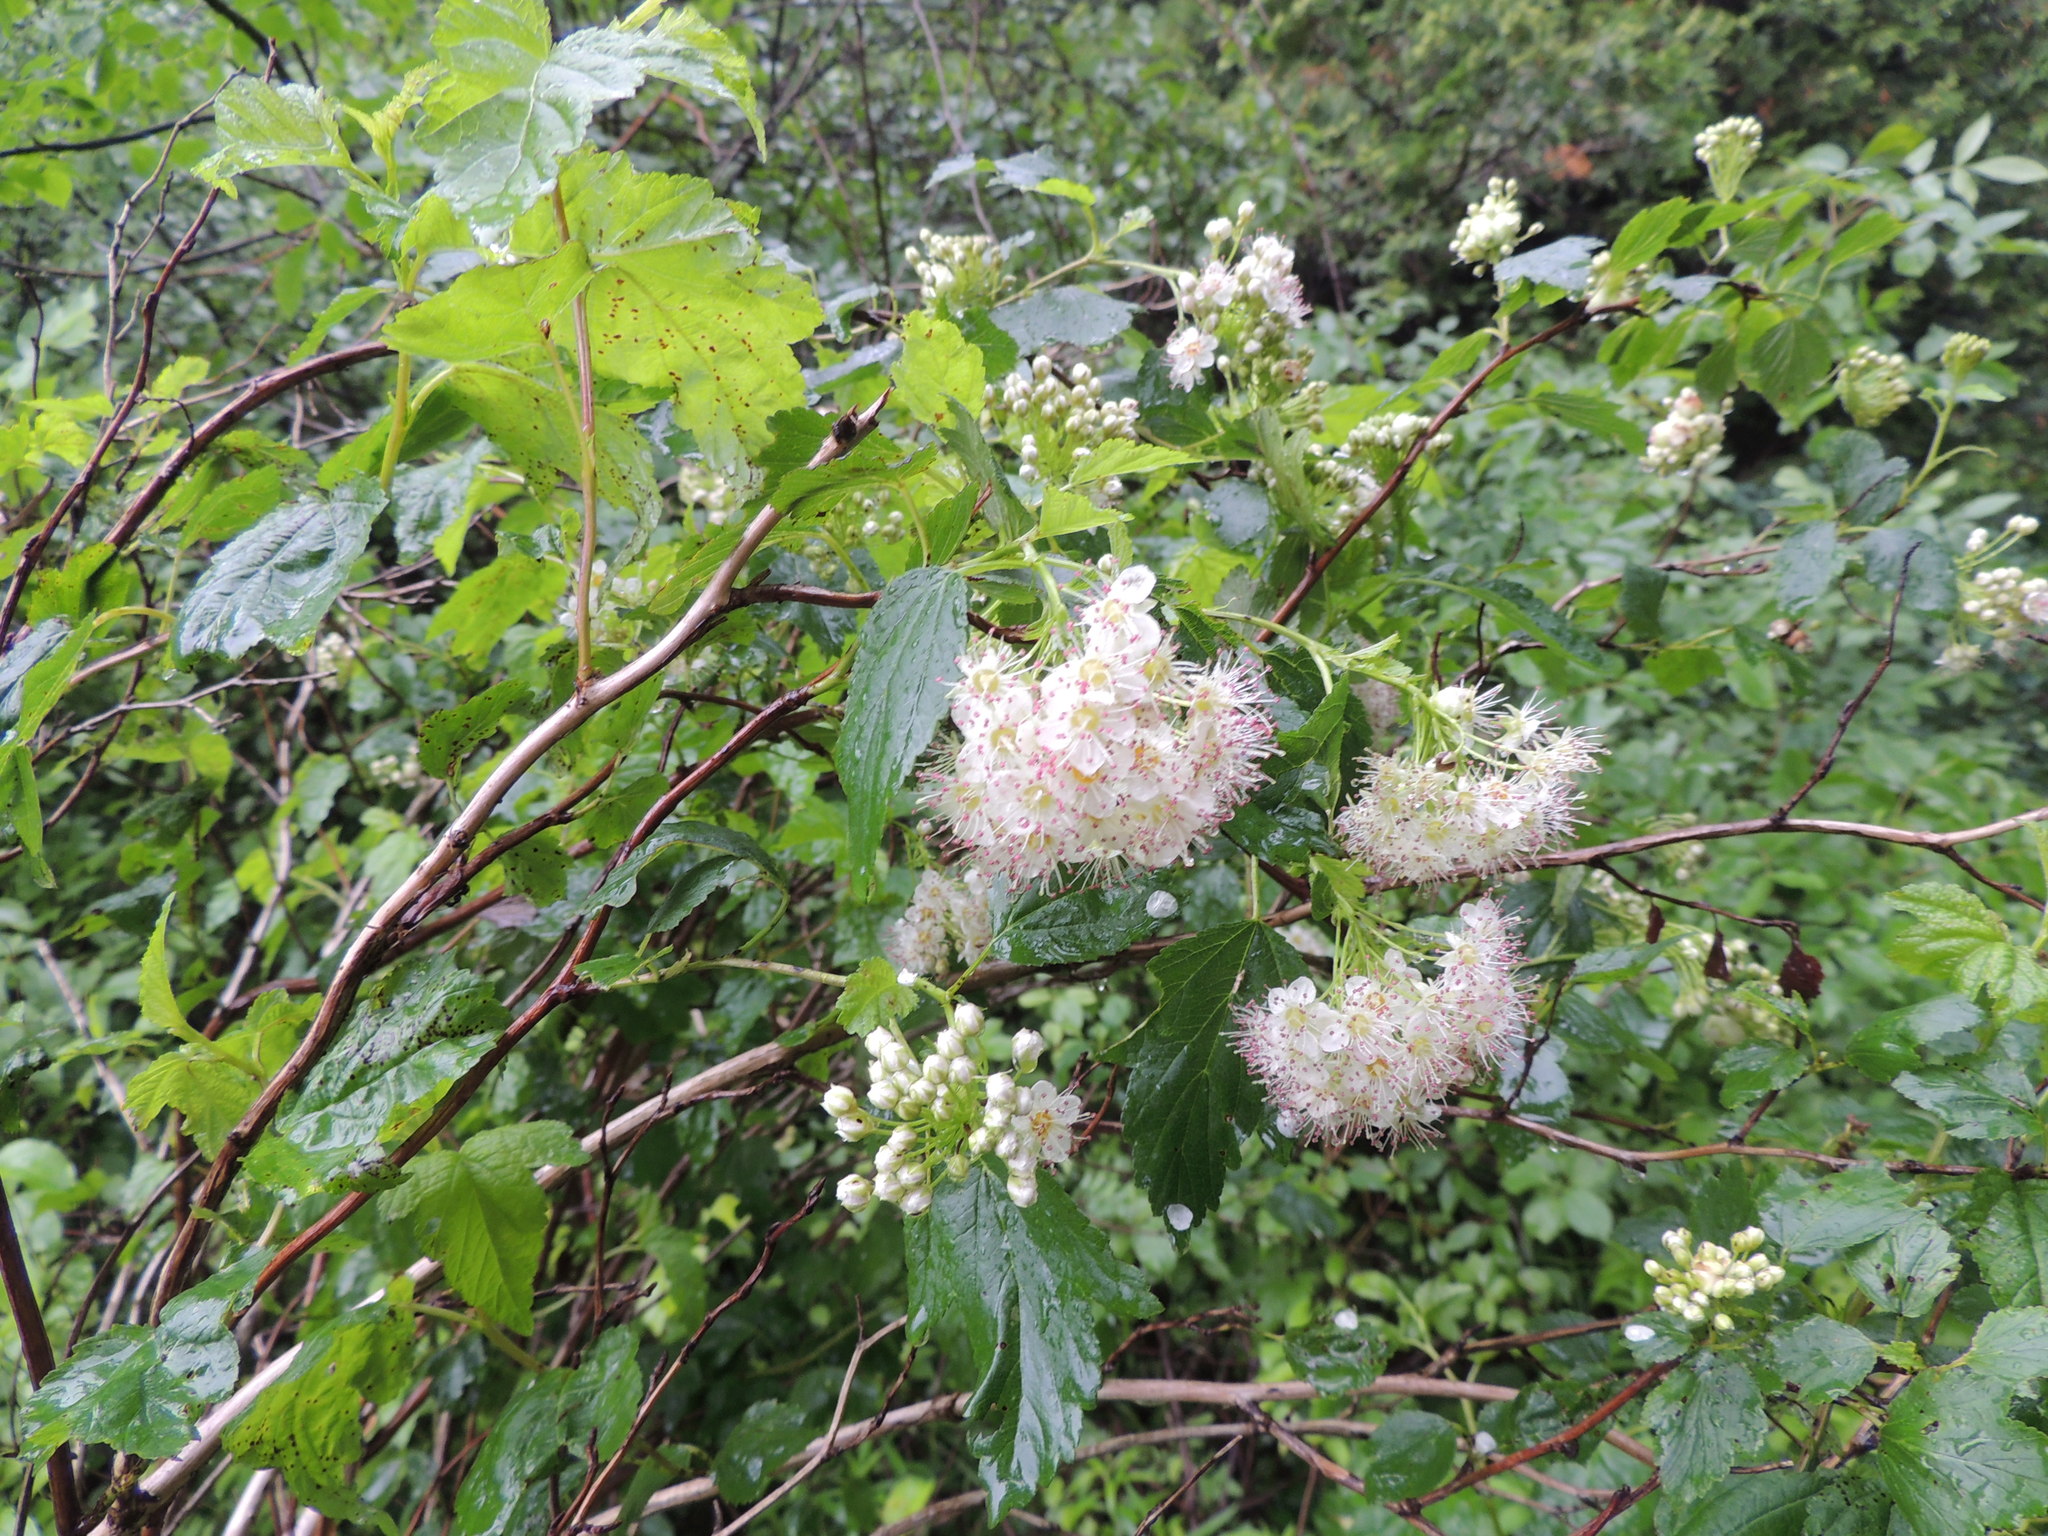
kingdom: Plantae
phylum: Tracheophyta
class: Magnoliopsida
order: Rosales
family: Rosaceae
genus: Physocarpus
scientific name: Physocarpus opulifolius
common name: Ninebark
